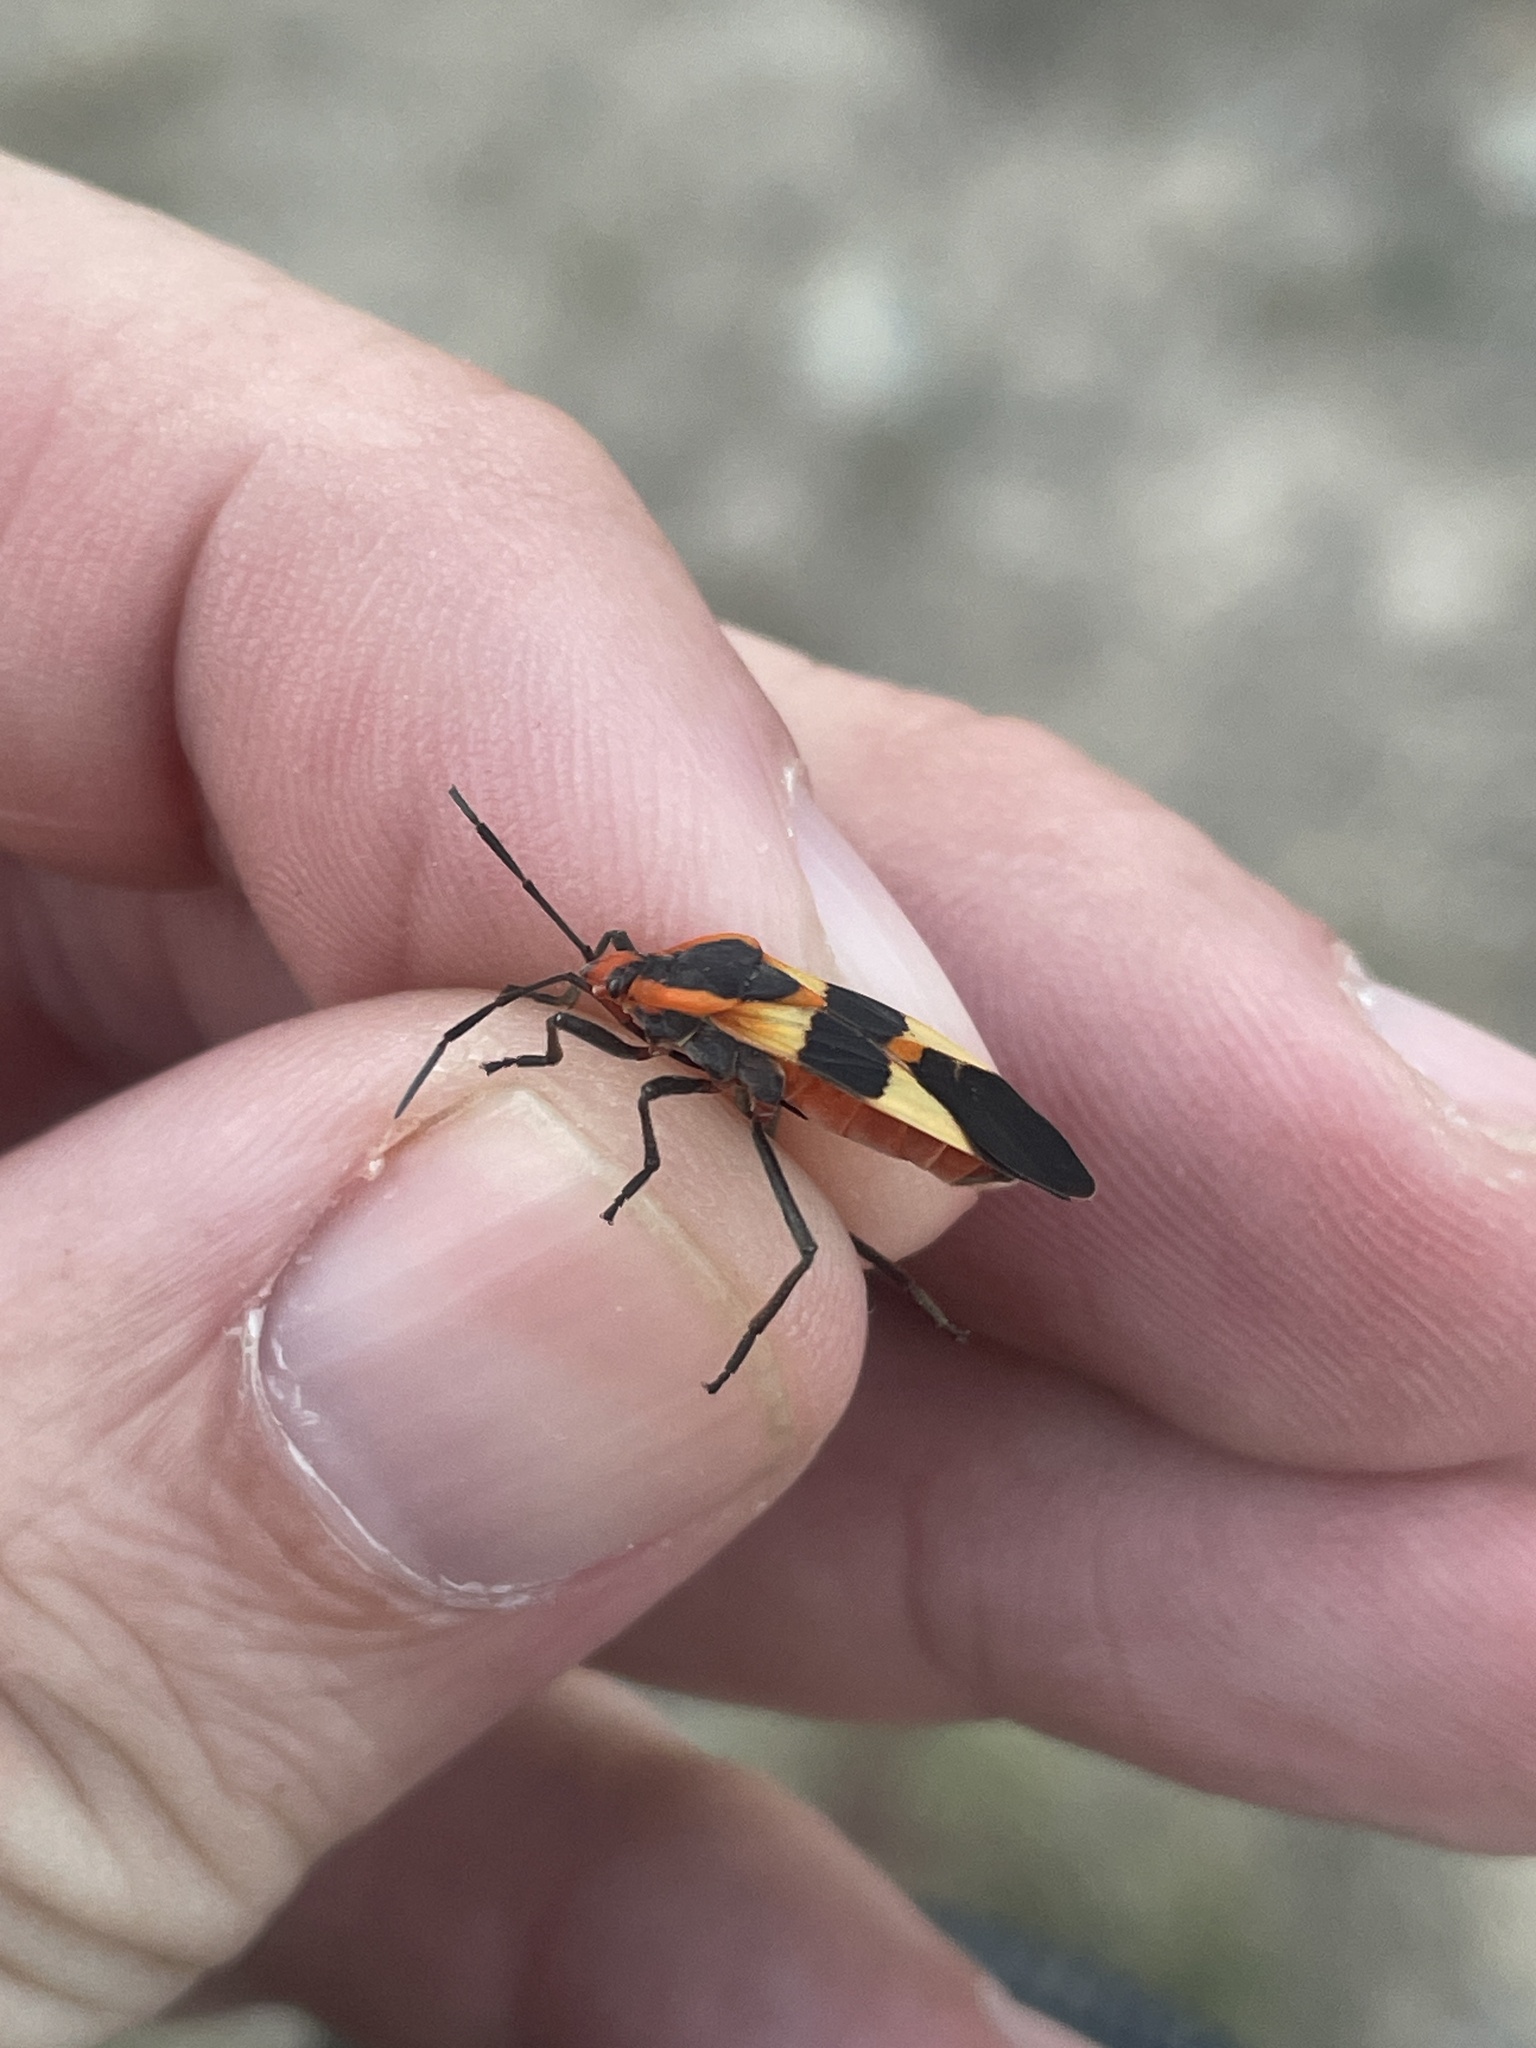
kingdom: Animalia
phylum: Arthropoda
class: Insecta
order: Hemiptera
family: Lygaeidae
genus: Oncopeltus
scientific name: Oncopeltus fasciatus
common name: Large milkweed bug
